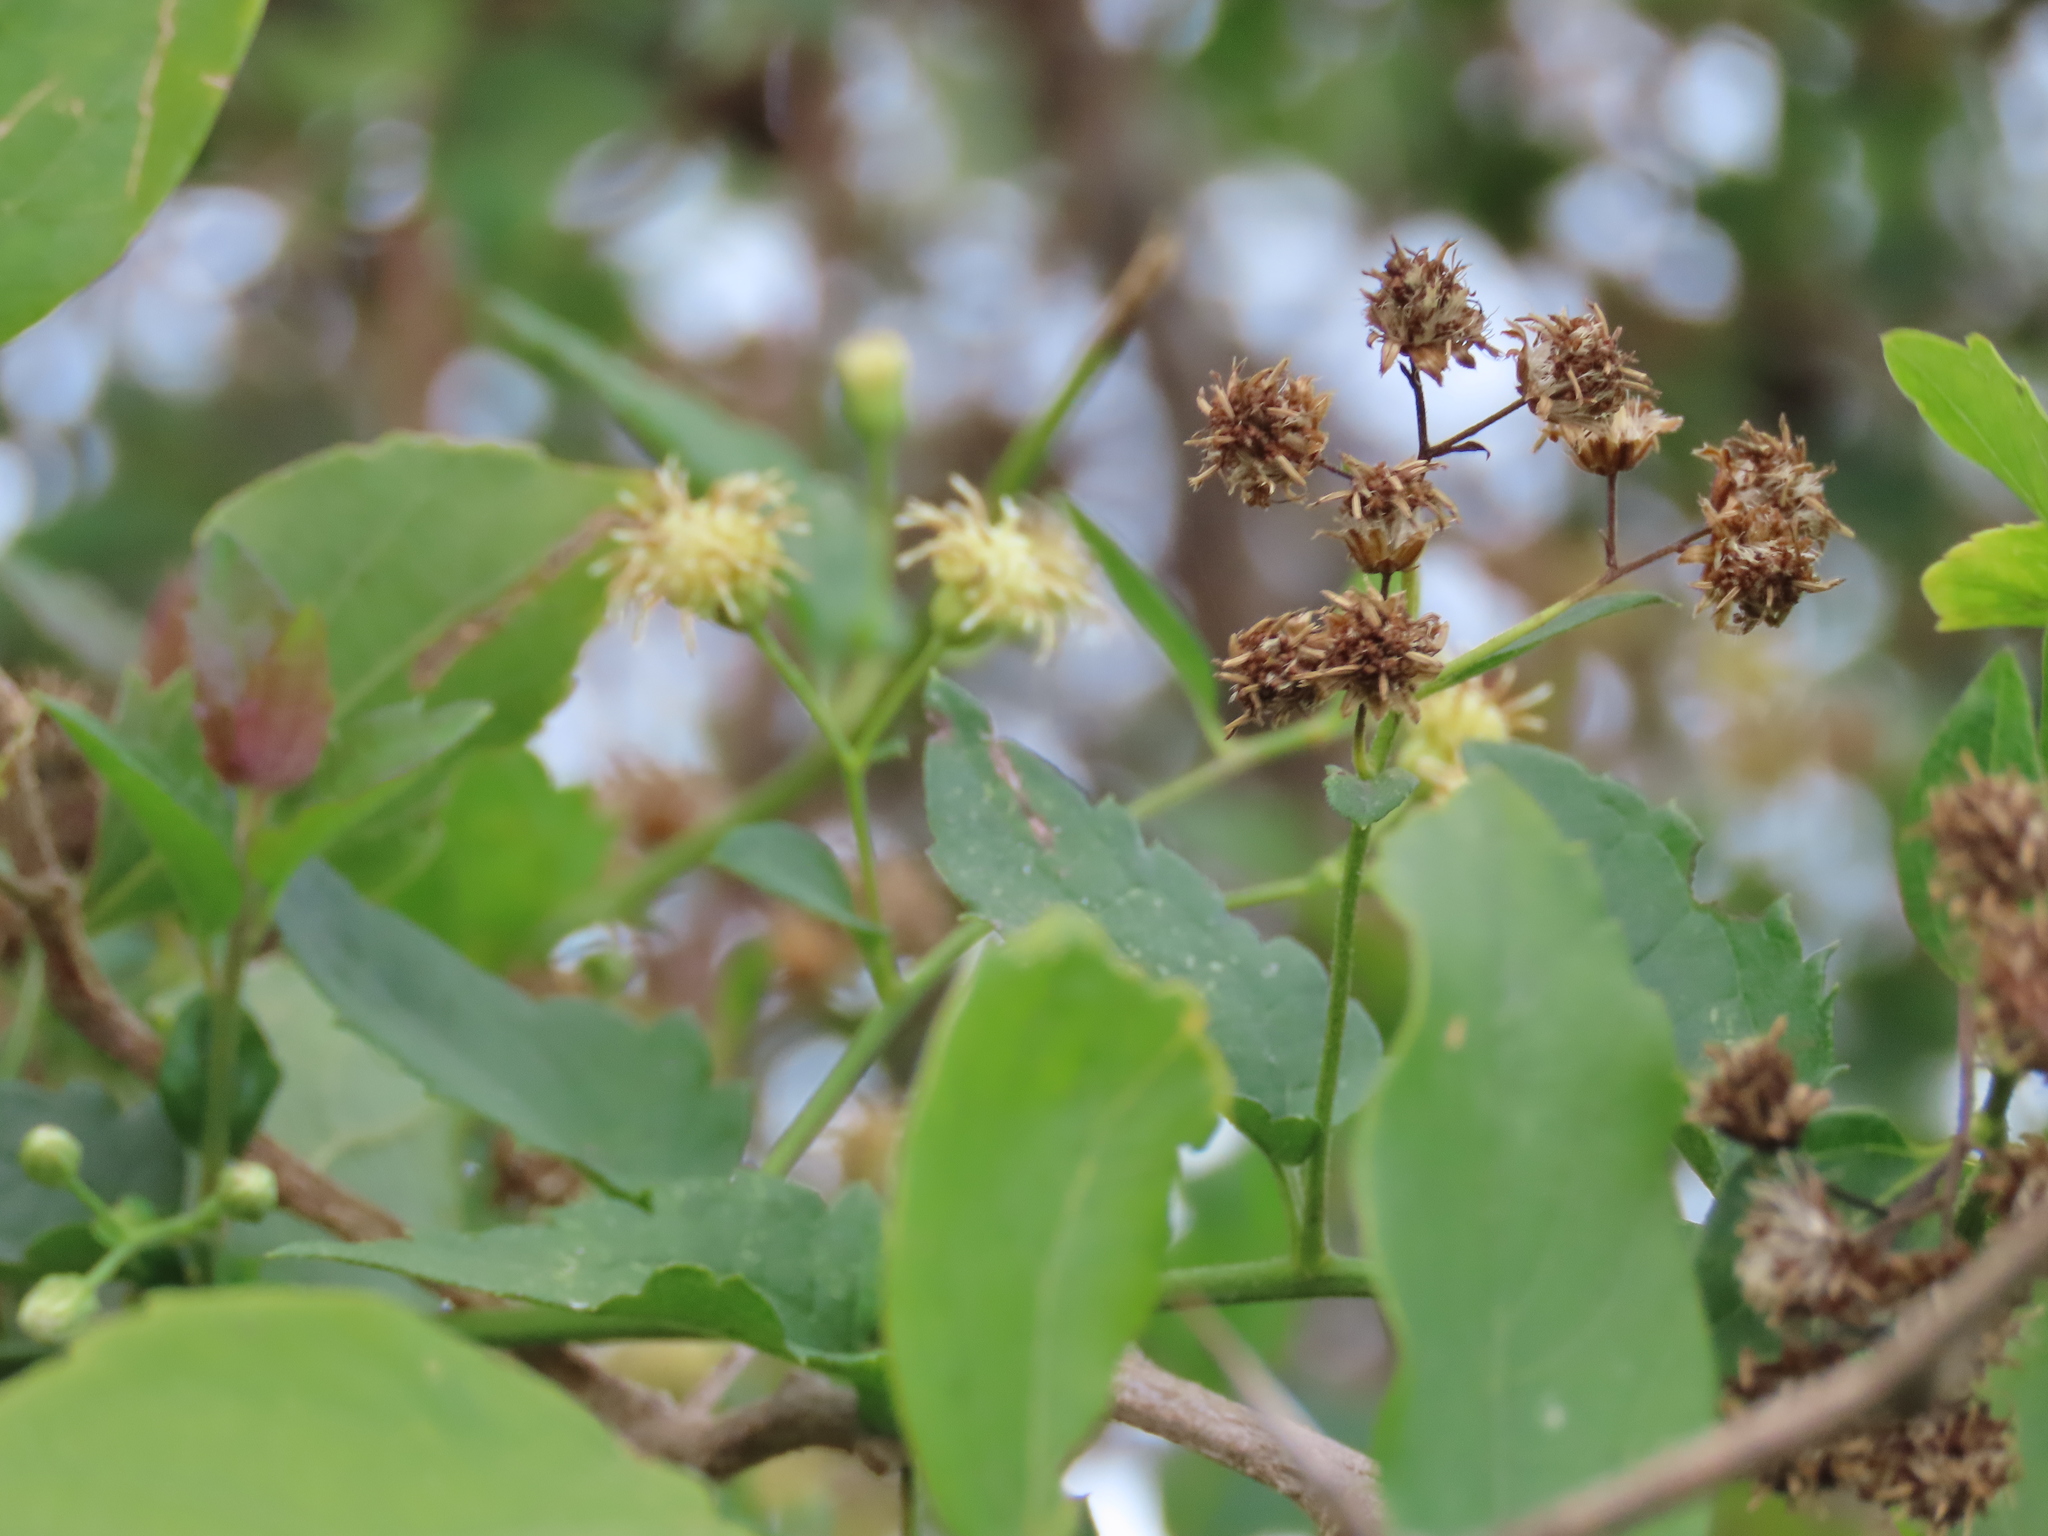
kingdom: Plantae
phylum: Tracheophyta
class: Magnoliopsida
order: Asterales
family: Asteraceae
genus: Baccharis
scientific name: Baccharis anomala
